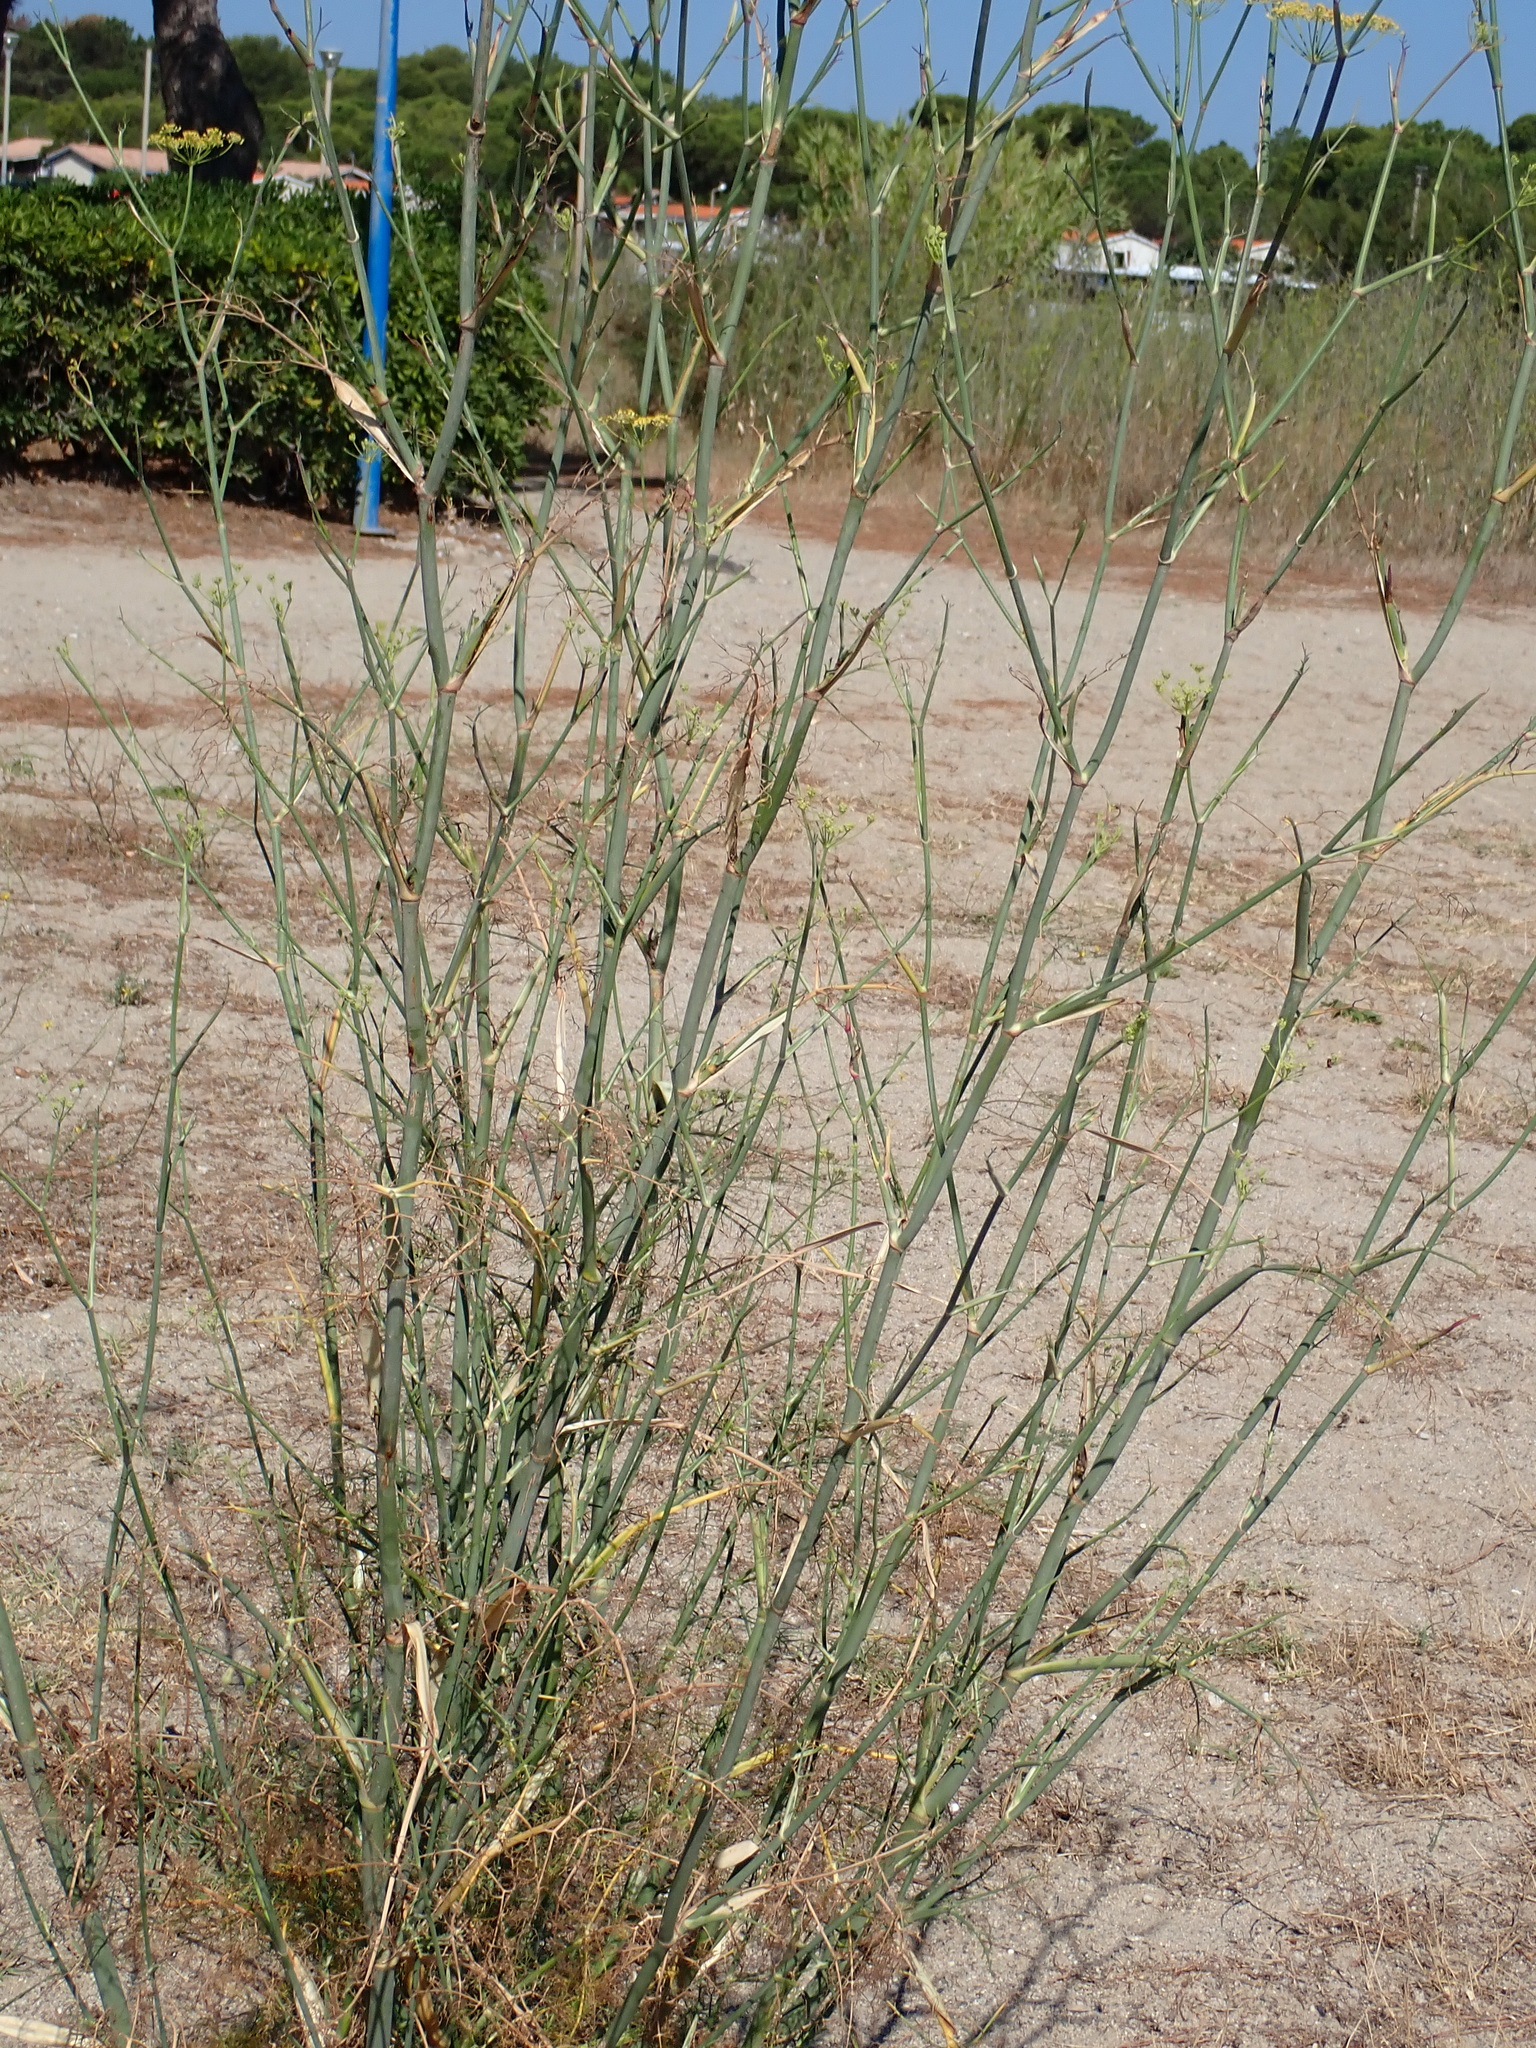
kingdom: Plantae
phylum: Tracheophyta
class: Magnoliopsida
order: Apiales
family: Apiaceae
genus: Foeniculum
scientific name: Foeniculum vulgare
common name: Fennel
